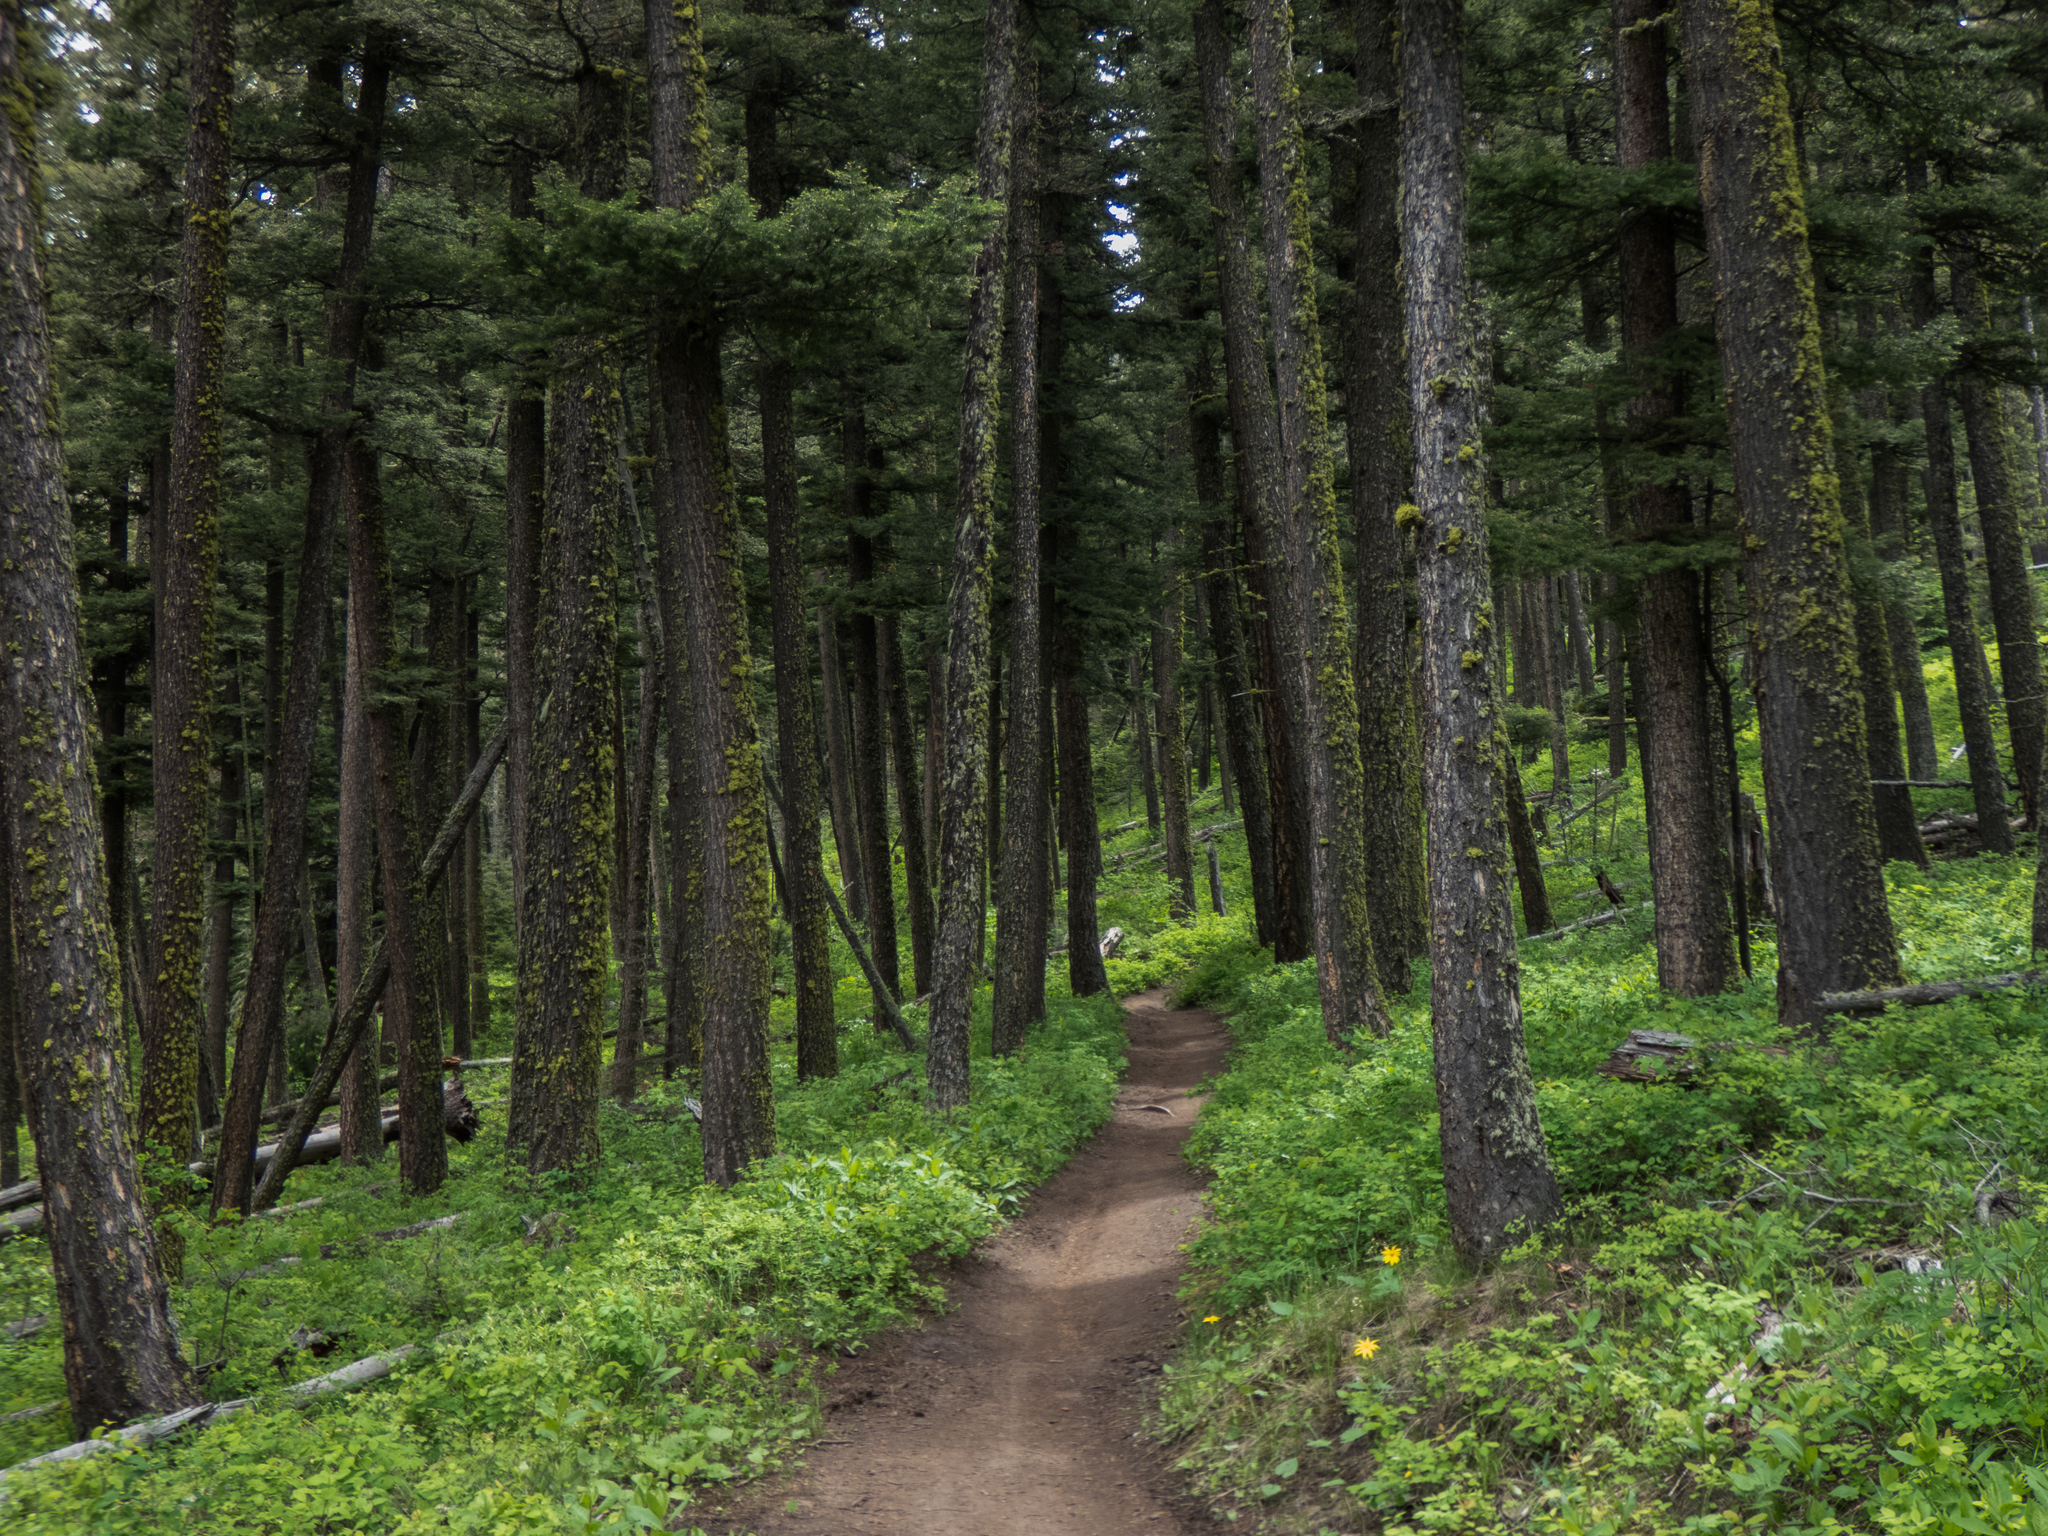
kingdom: Plantae
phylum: Tracheophyta
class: Pinopsida
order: Pinales
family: Pinaceae
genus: Pinus
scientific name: Pinus contorta
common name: Lodgepole pine
